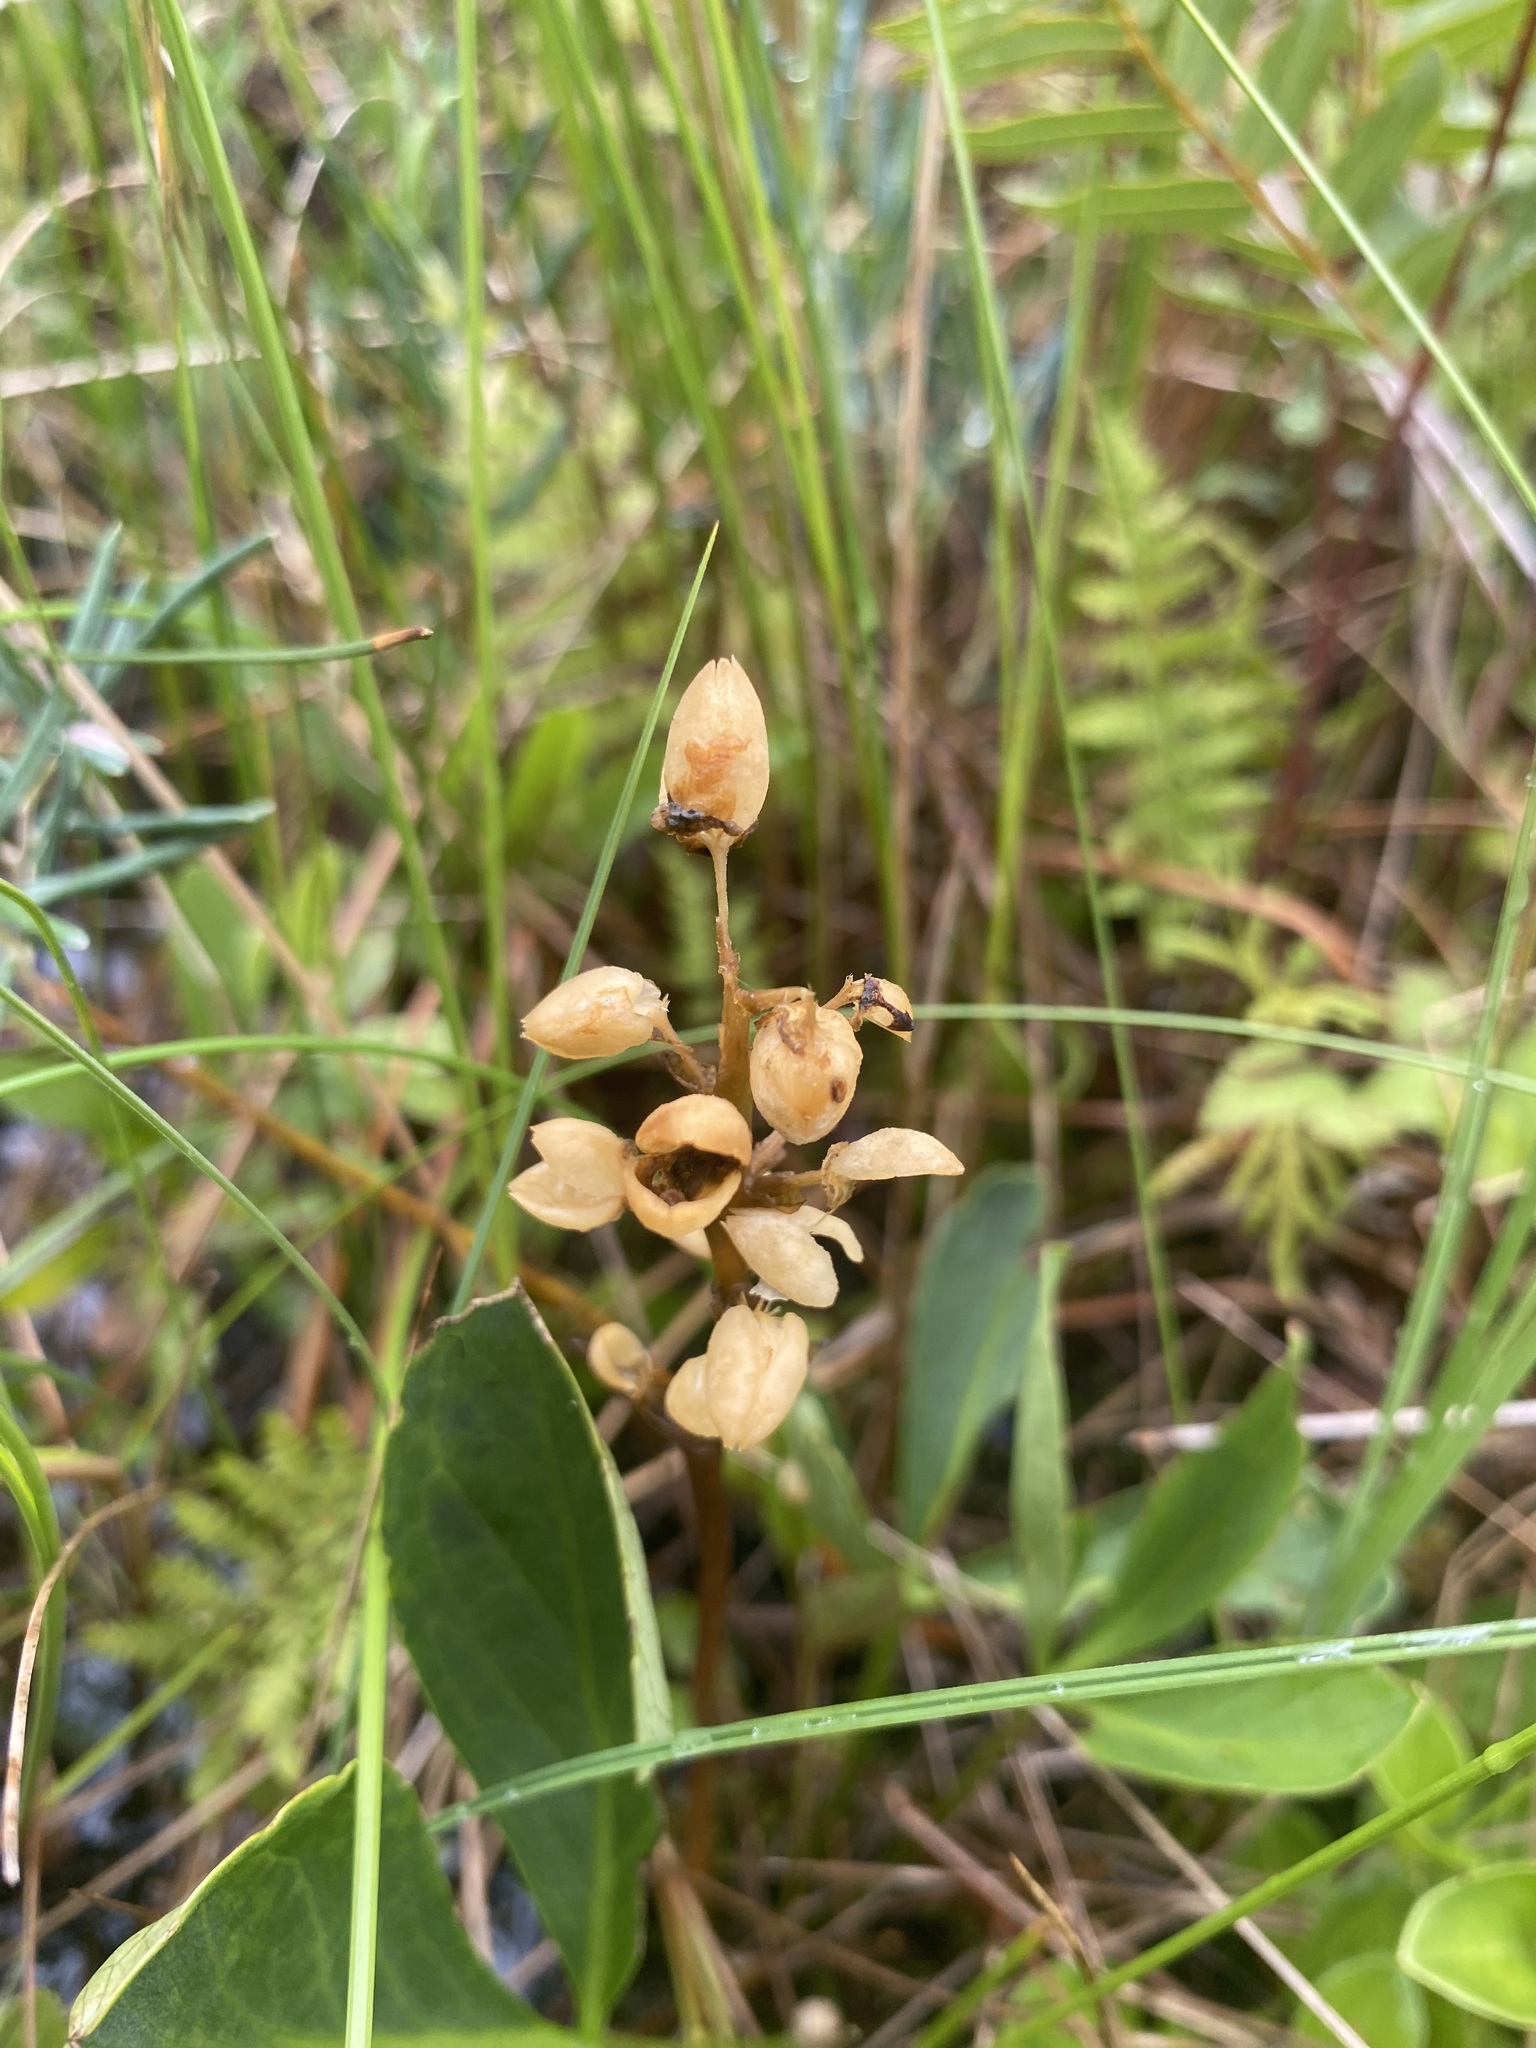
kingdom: Plantae
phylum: Tracheophyta
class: Magnoliopsida
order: Asterales
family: Menyanthaceae
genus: Menyanthes
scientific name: Menyanthes trifoliata
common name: Bogbean
